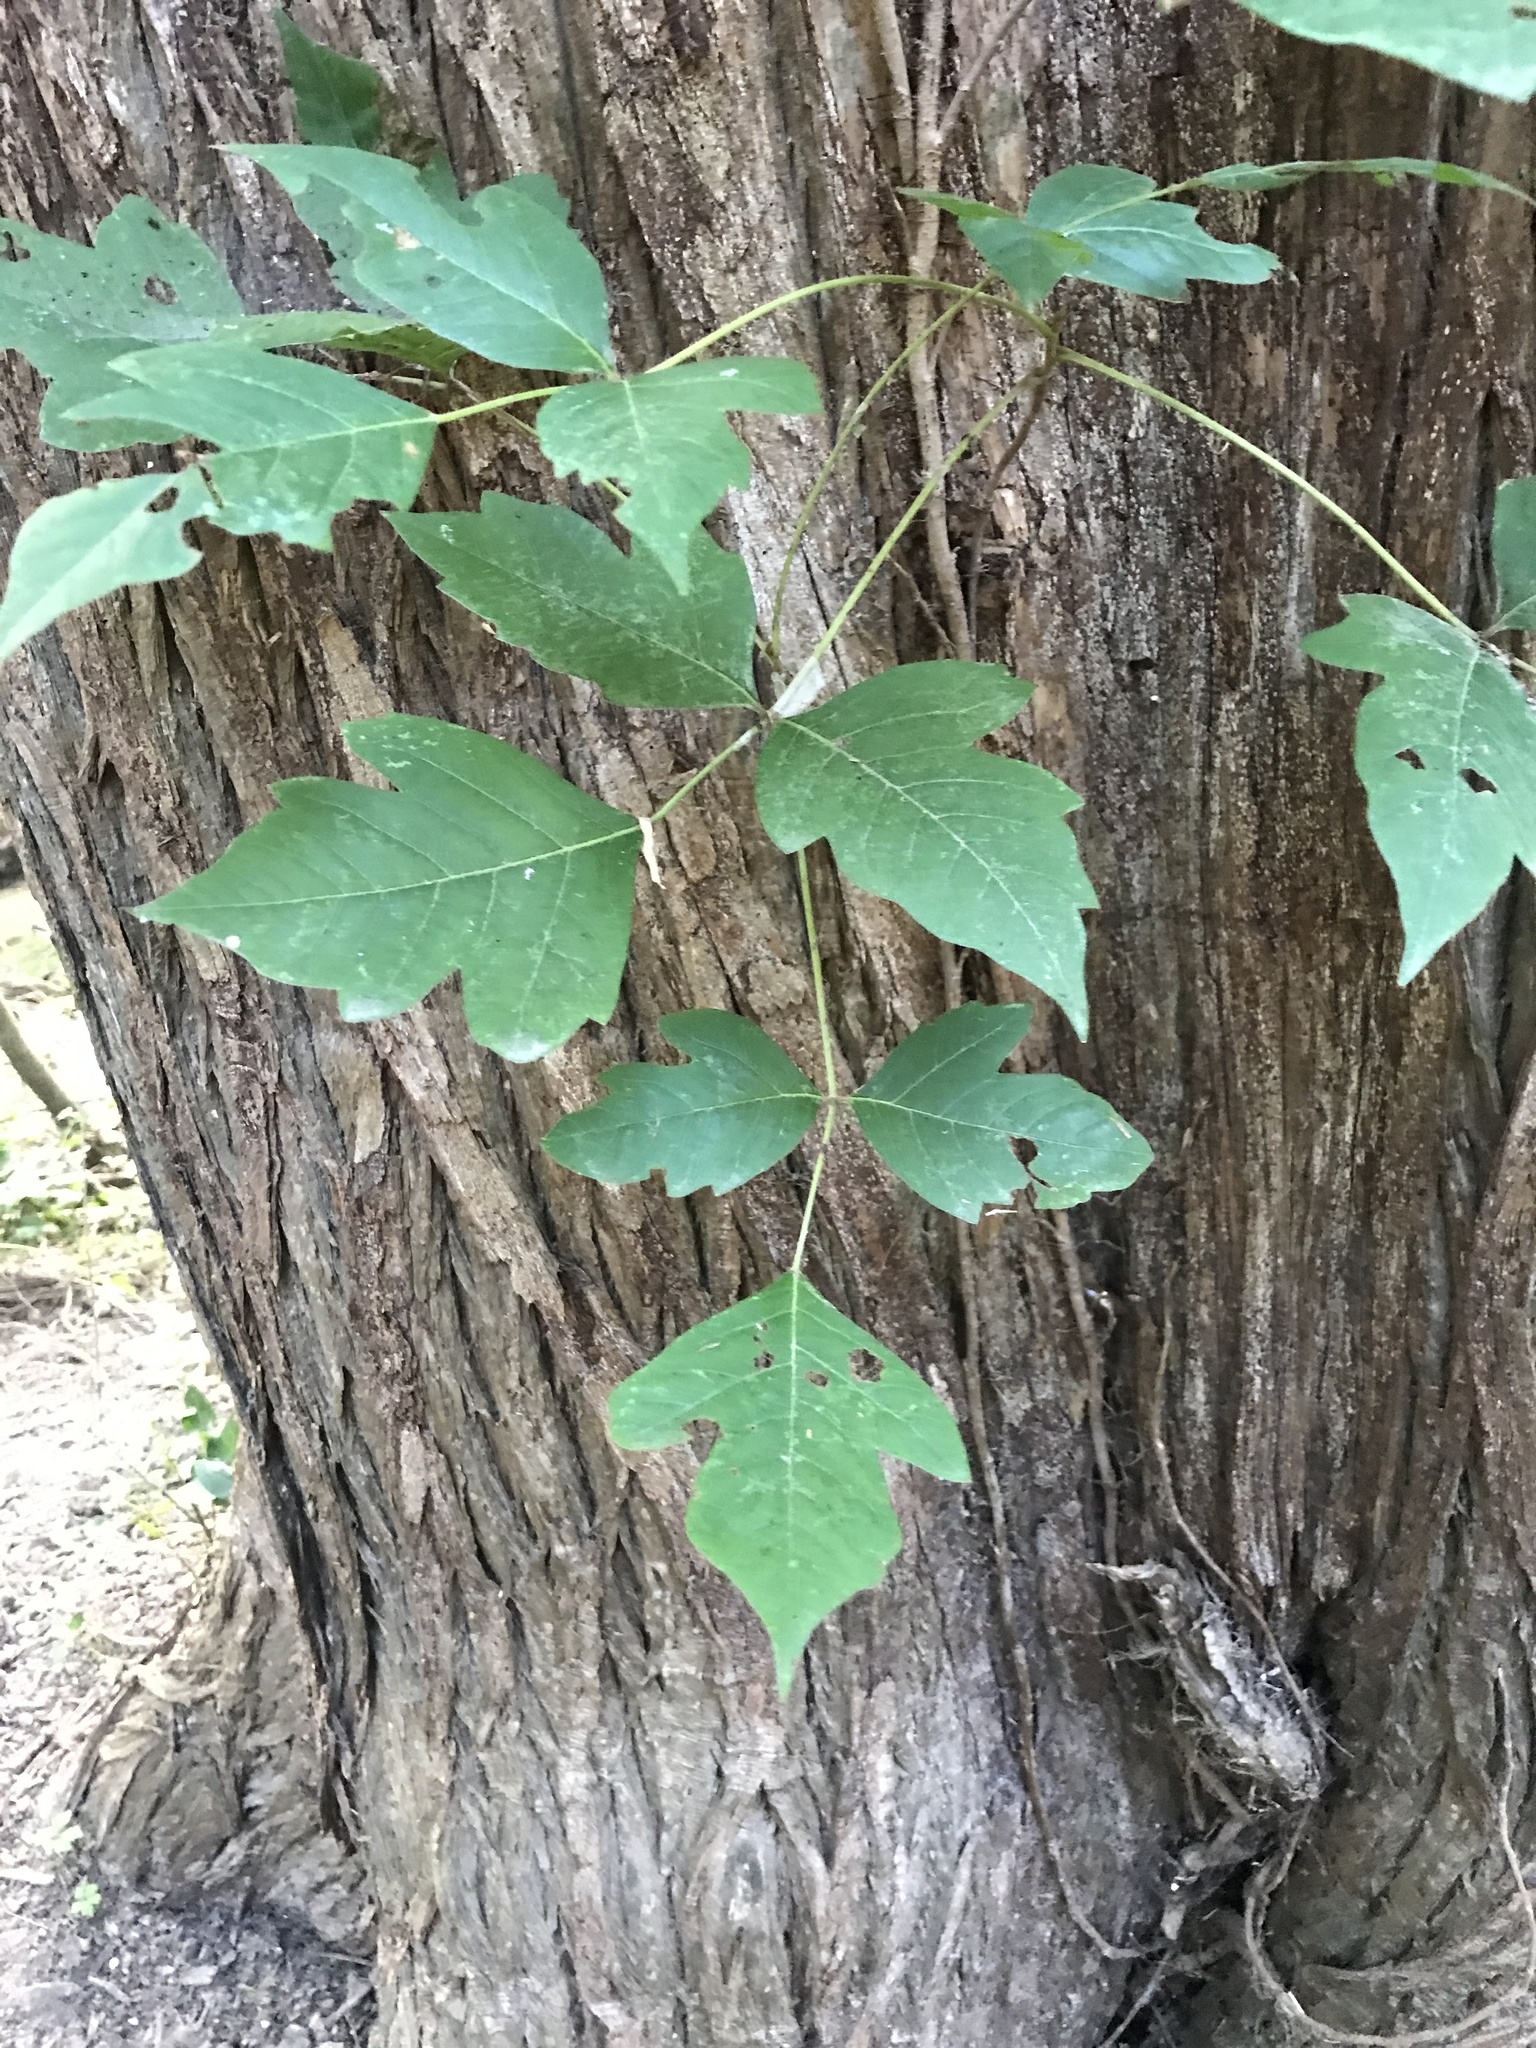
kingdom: Plantae
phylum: Tracheophyta
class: Magnoliopsida
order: Sapindales
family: Anacardiaceae
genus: Toxicodendron
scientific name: Toxicodendron radicans
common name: Poison ivy
